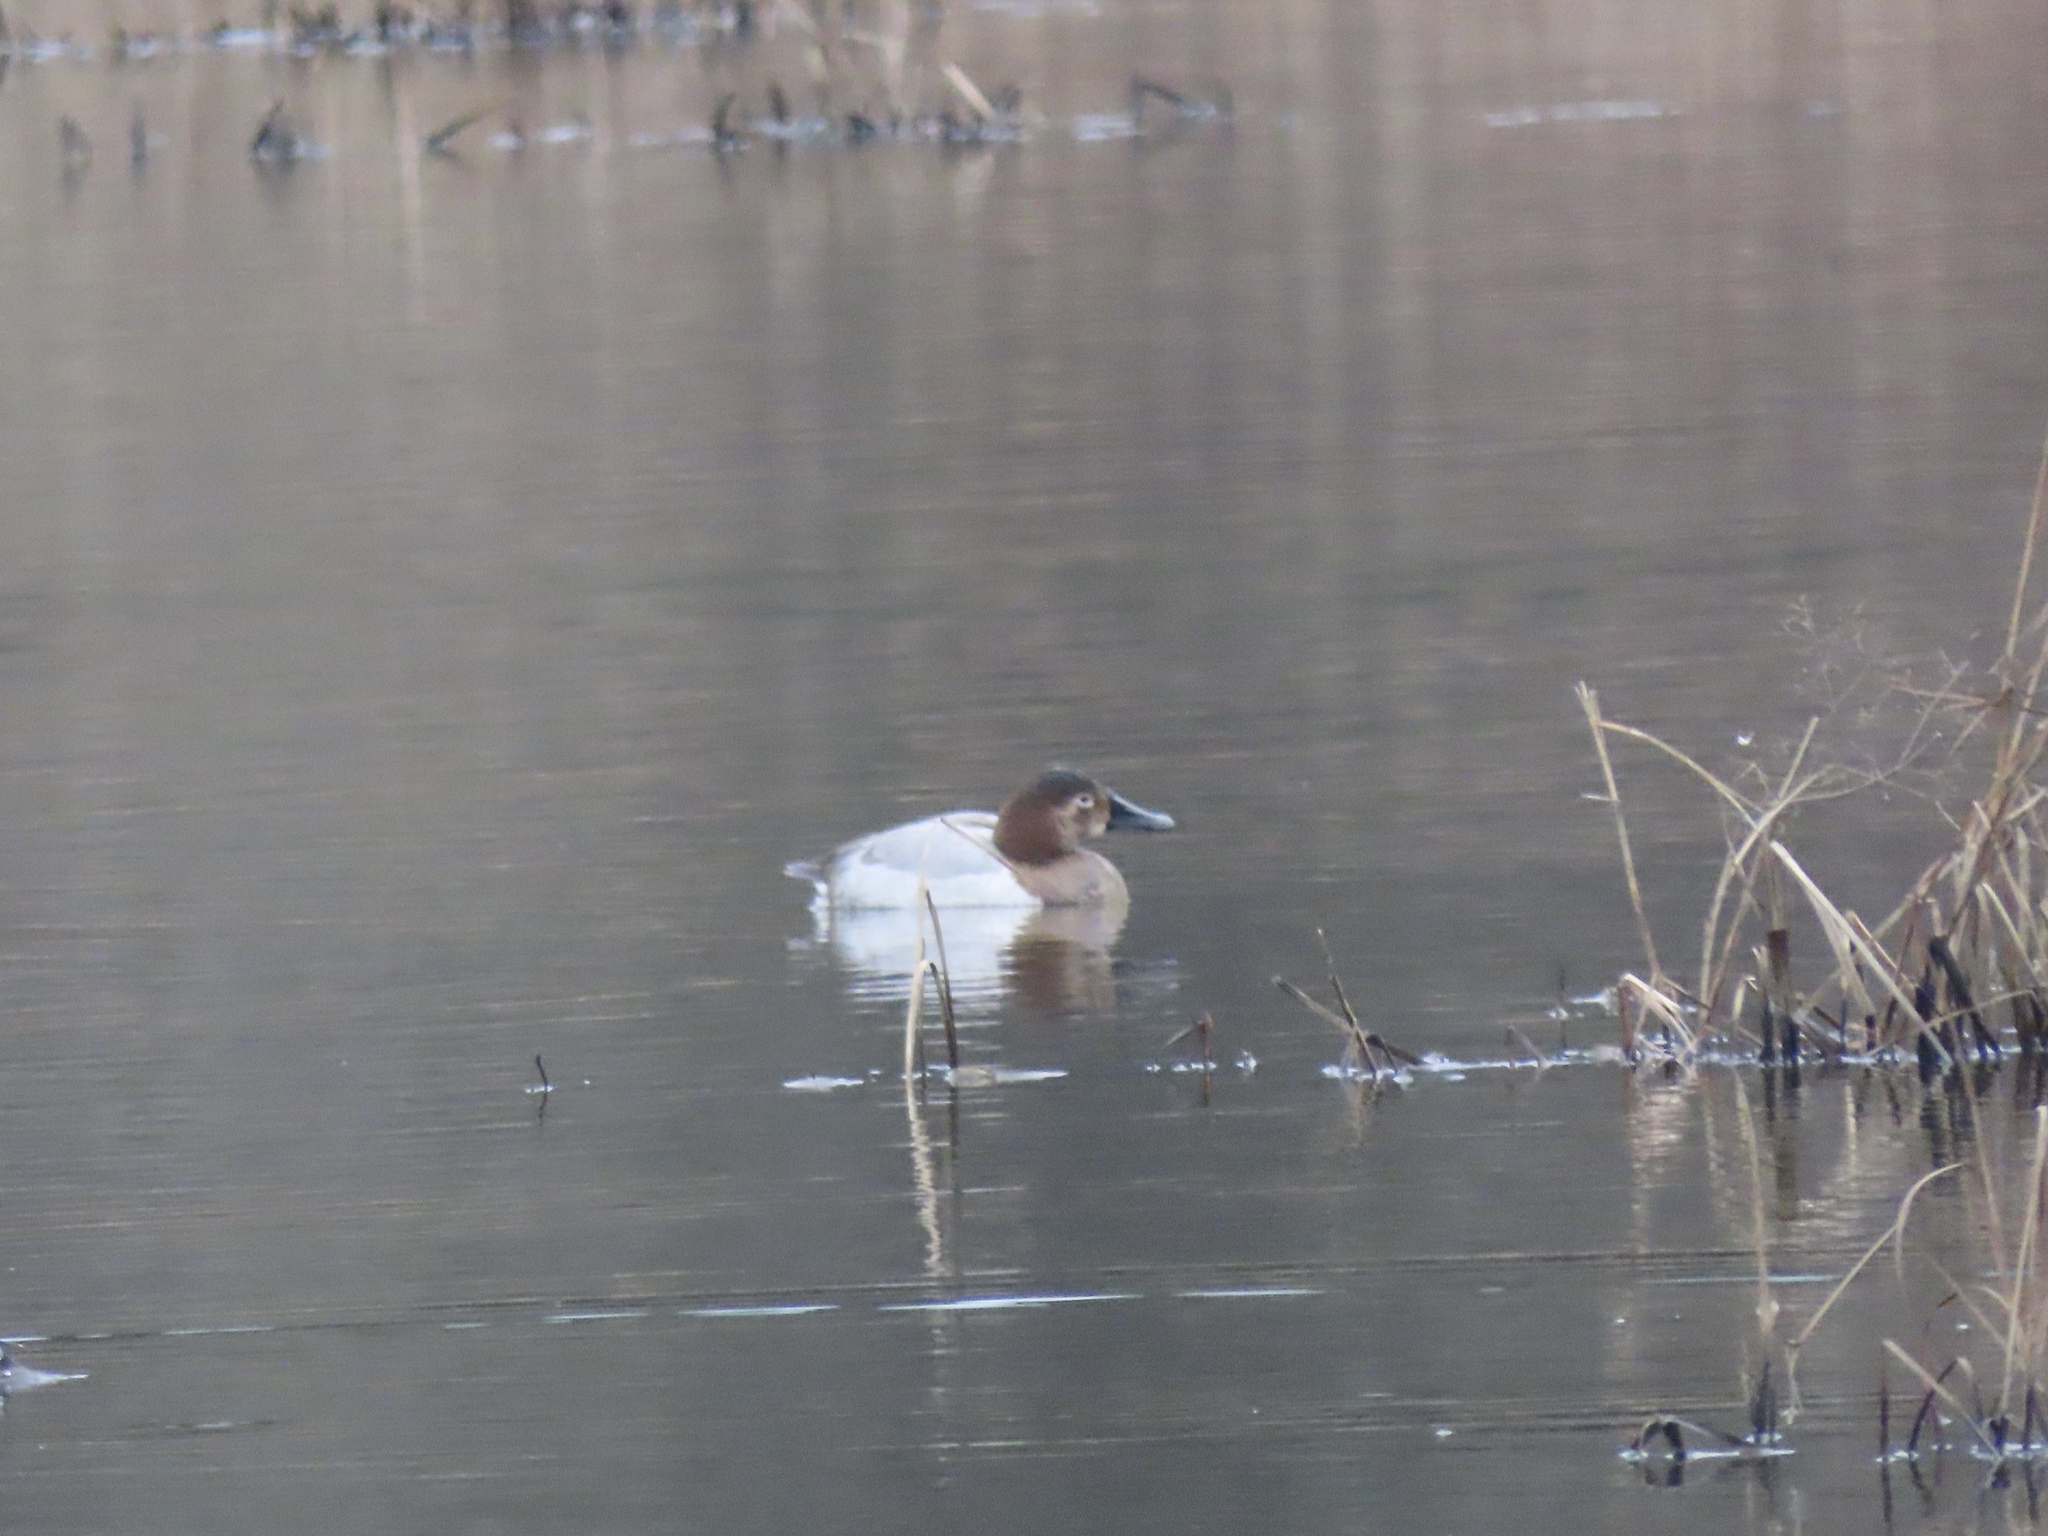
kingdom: Animalia
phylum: Chordata
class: Aves
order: Anseriformes
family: Anatidae
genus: Aythya
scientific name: Aythya valisineria
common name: Canvasback
